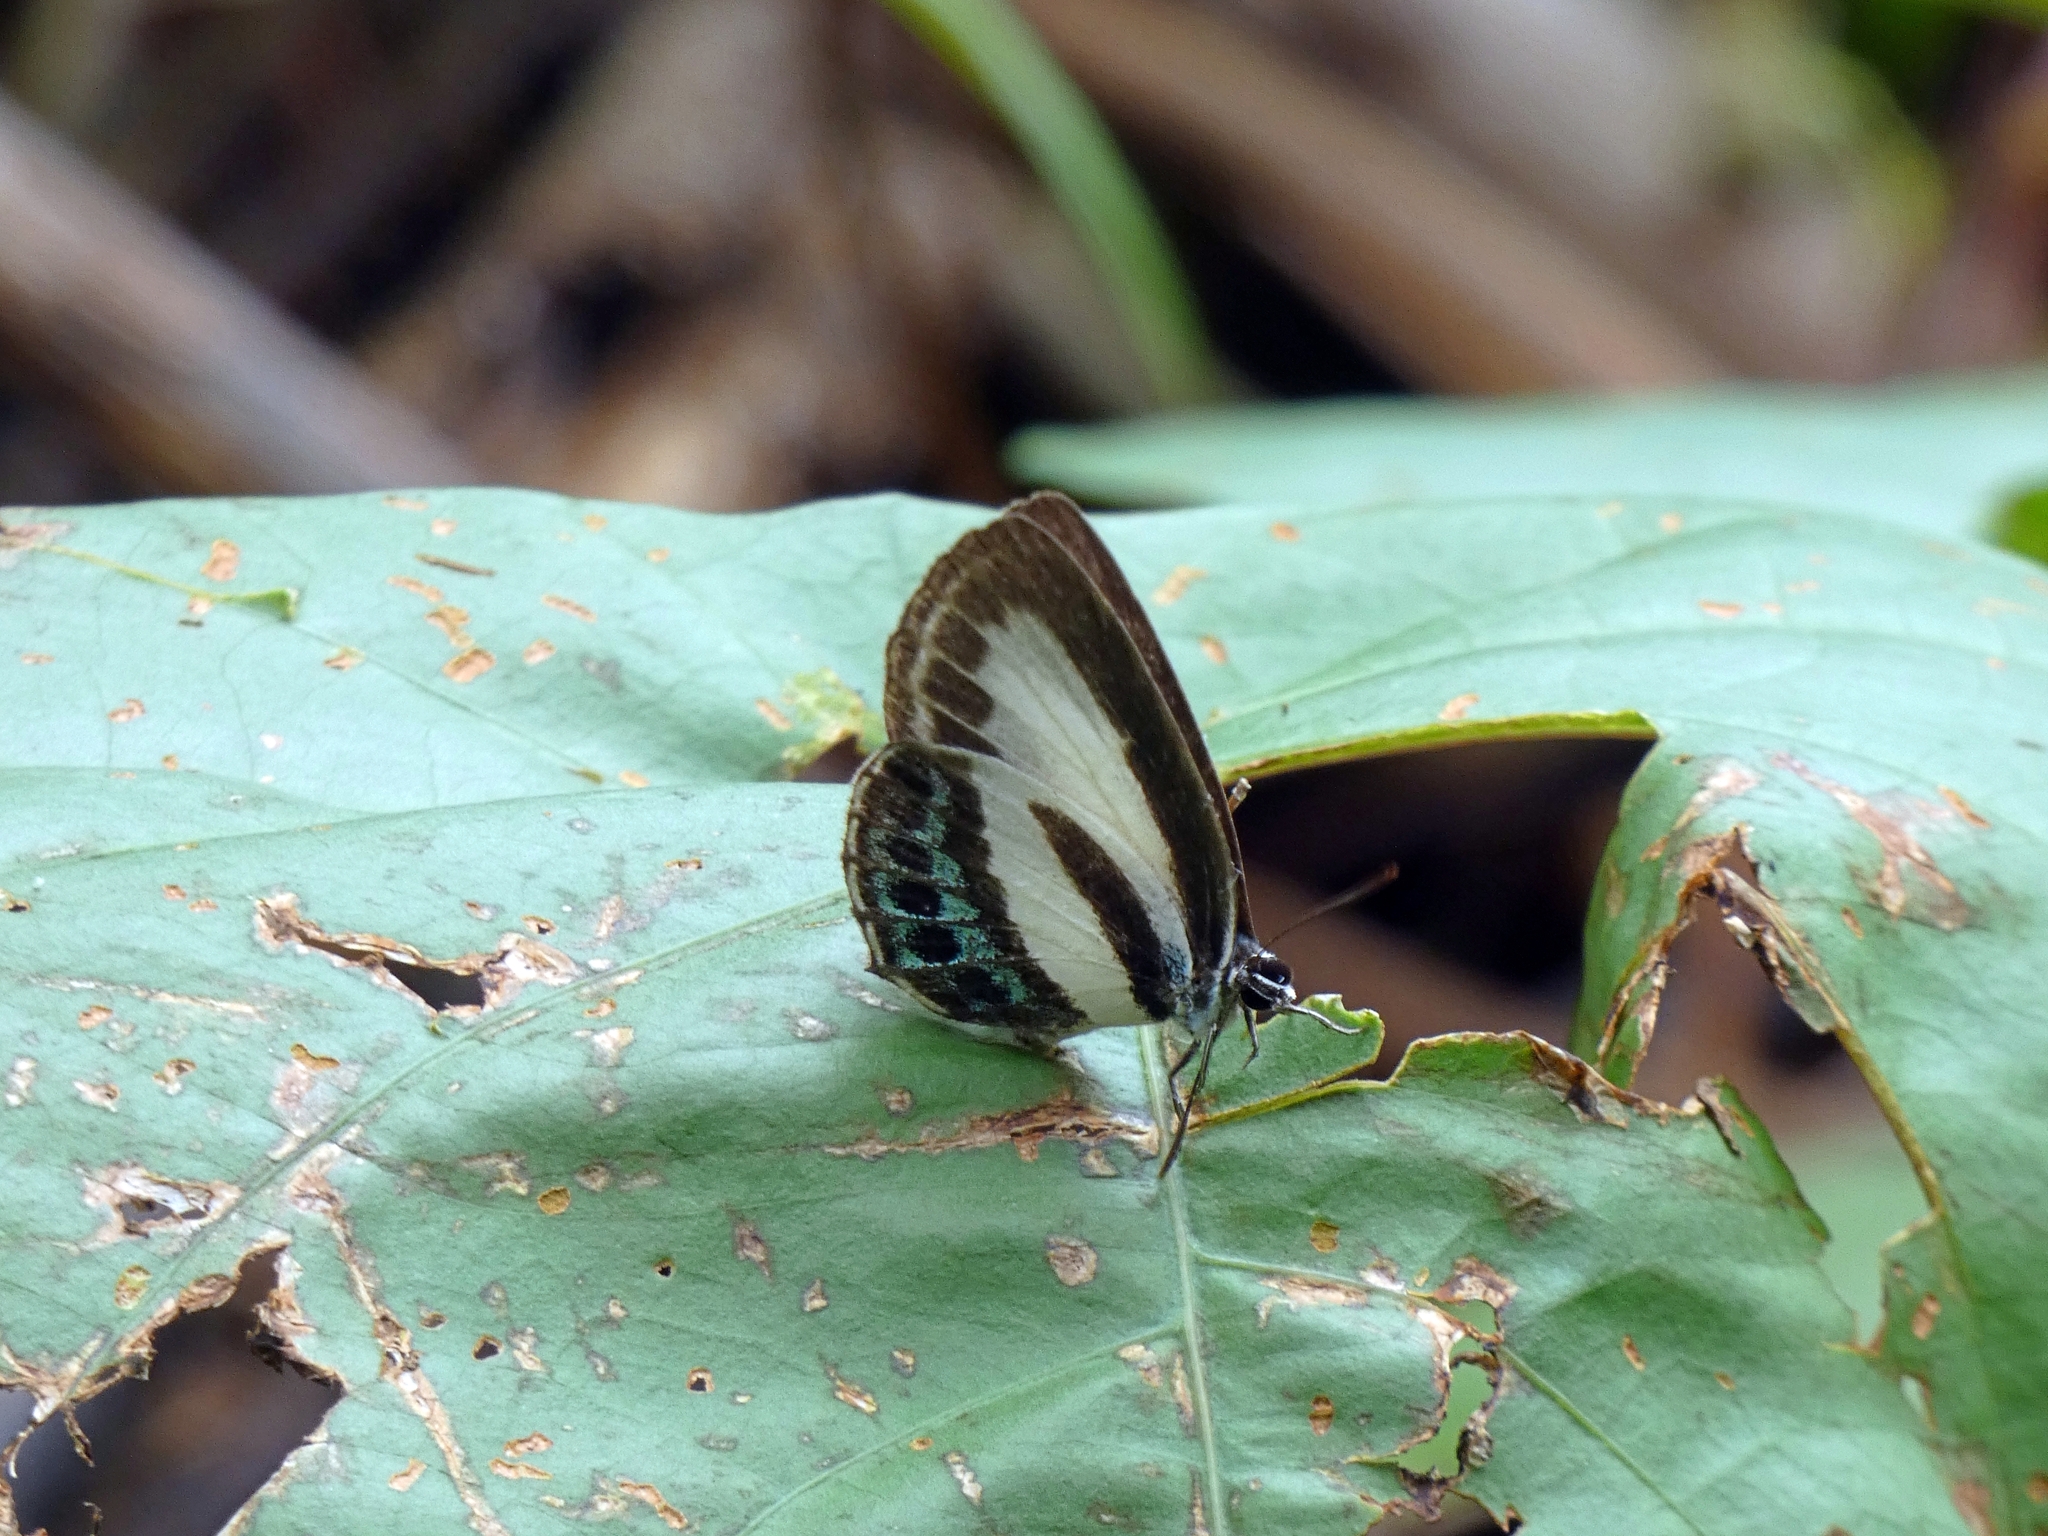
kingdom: Animalia
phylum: Arthropoda
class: Insecta
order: Lepidoptera
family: Lycaenidae
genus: Nacaduba
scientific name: Nacaduba cyanea
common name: Tailed green-banded line blue
